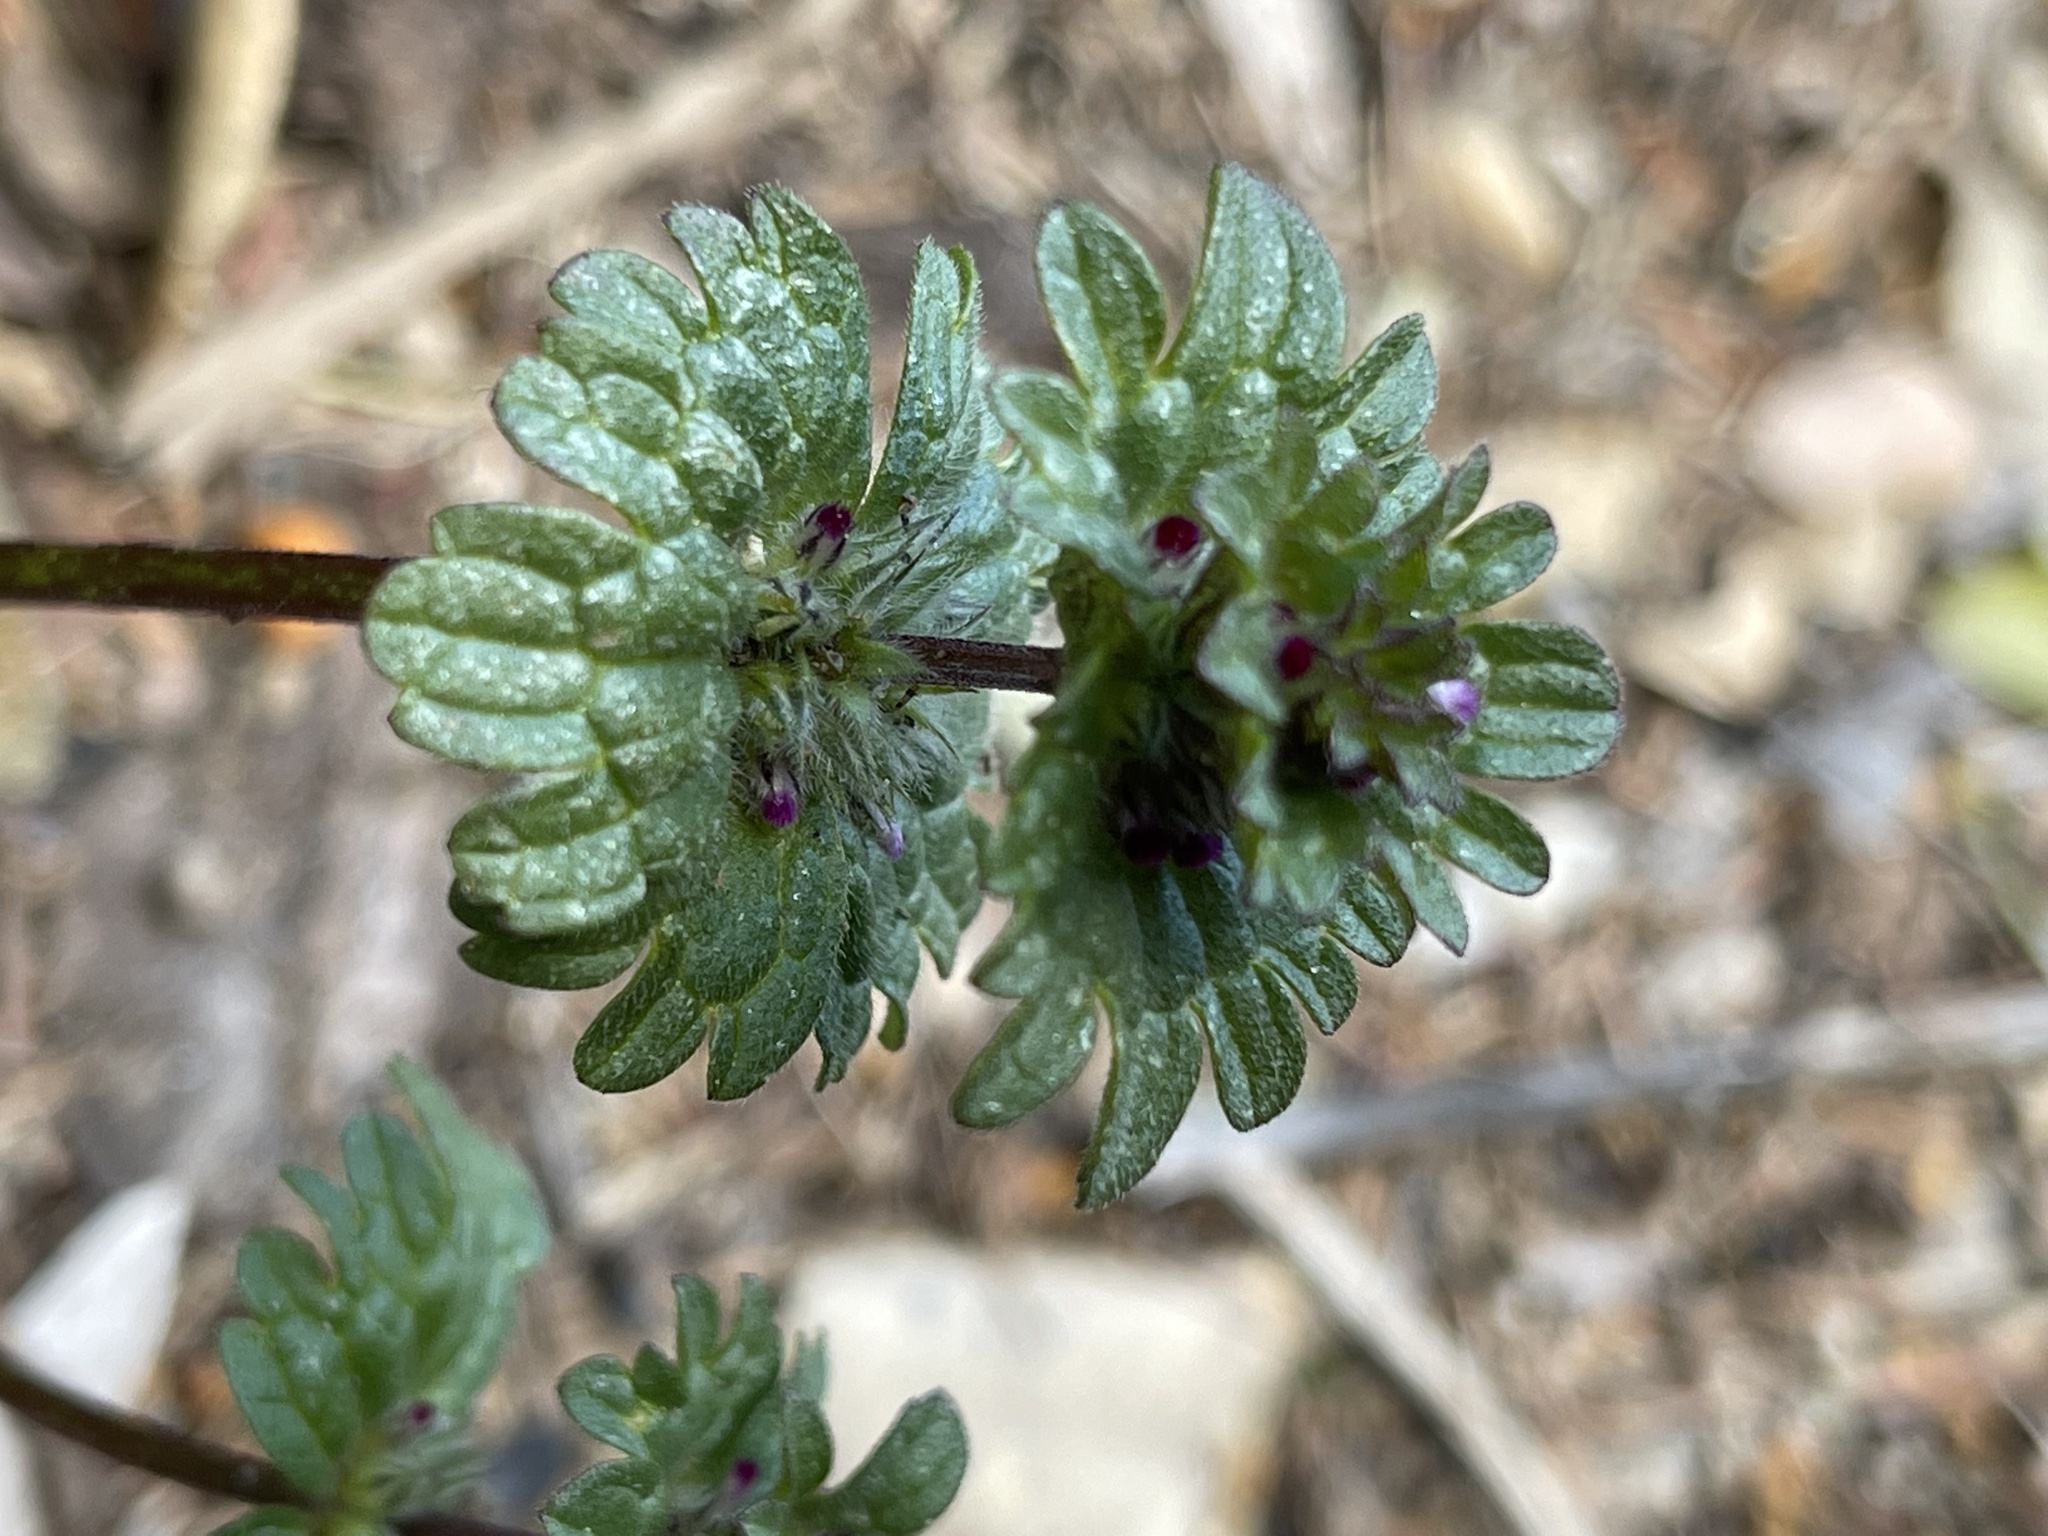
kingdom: Plantae
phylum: Tracheophyta
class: Magnoliopsida
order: Lamiales
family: Lamiaceae
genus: Lamium
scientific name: Lamium amplexicaule
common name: Henbit dead-nettle
